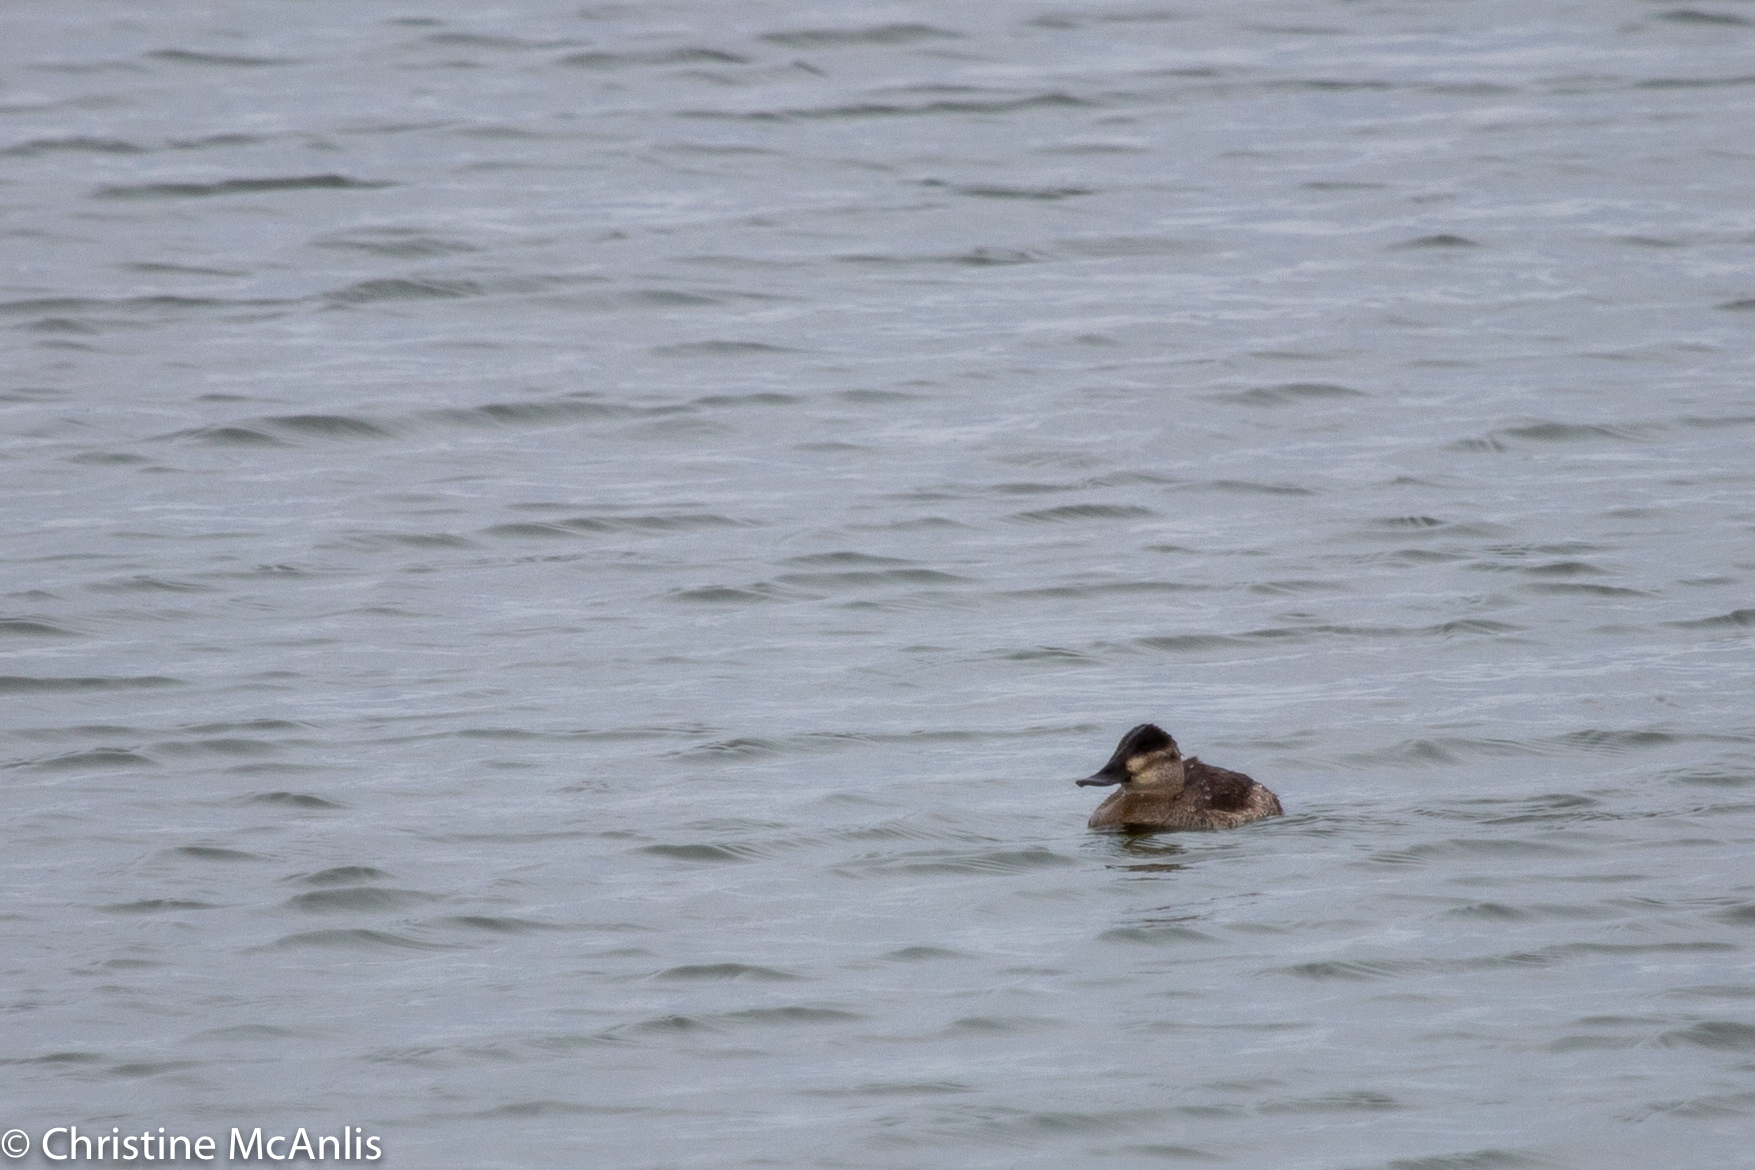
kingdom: Animalia
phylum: Chordata
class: Aves
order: Anseriformes
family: Anatidae
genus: Oxyura
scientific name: Oxyura jamaicensis
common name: Ruddy duck
